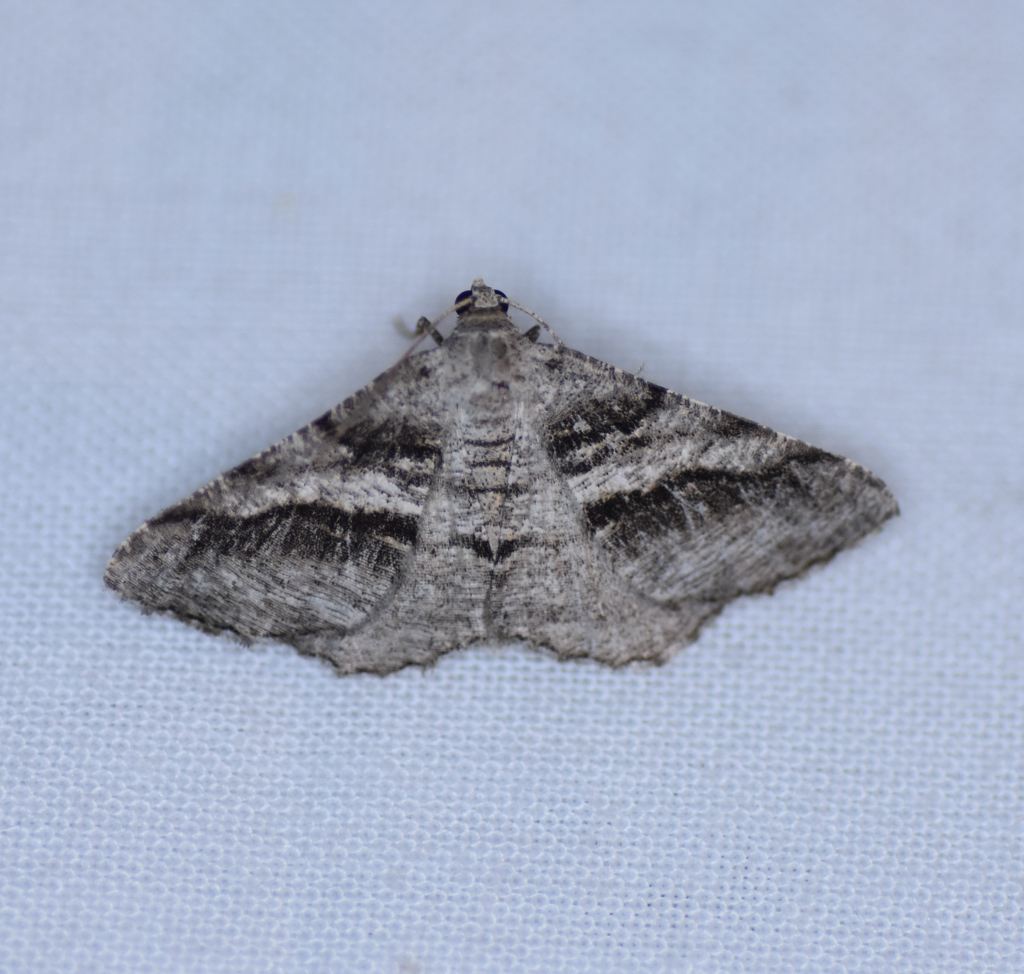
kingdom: Animalia
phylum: Arthropoda
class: Insecta
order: Lepidoptera
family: Geometridae
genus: Digrammia
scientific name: Digrammia continuata
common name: Curve-lined angle
